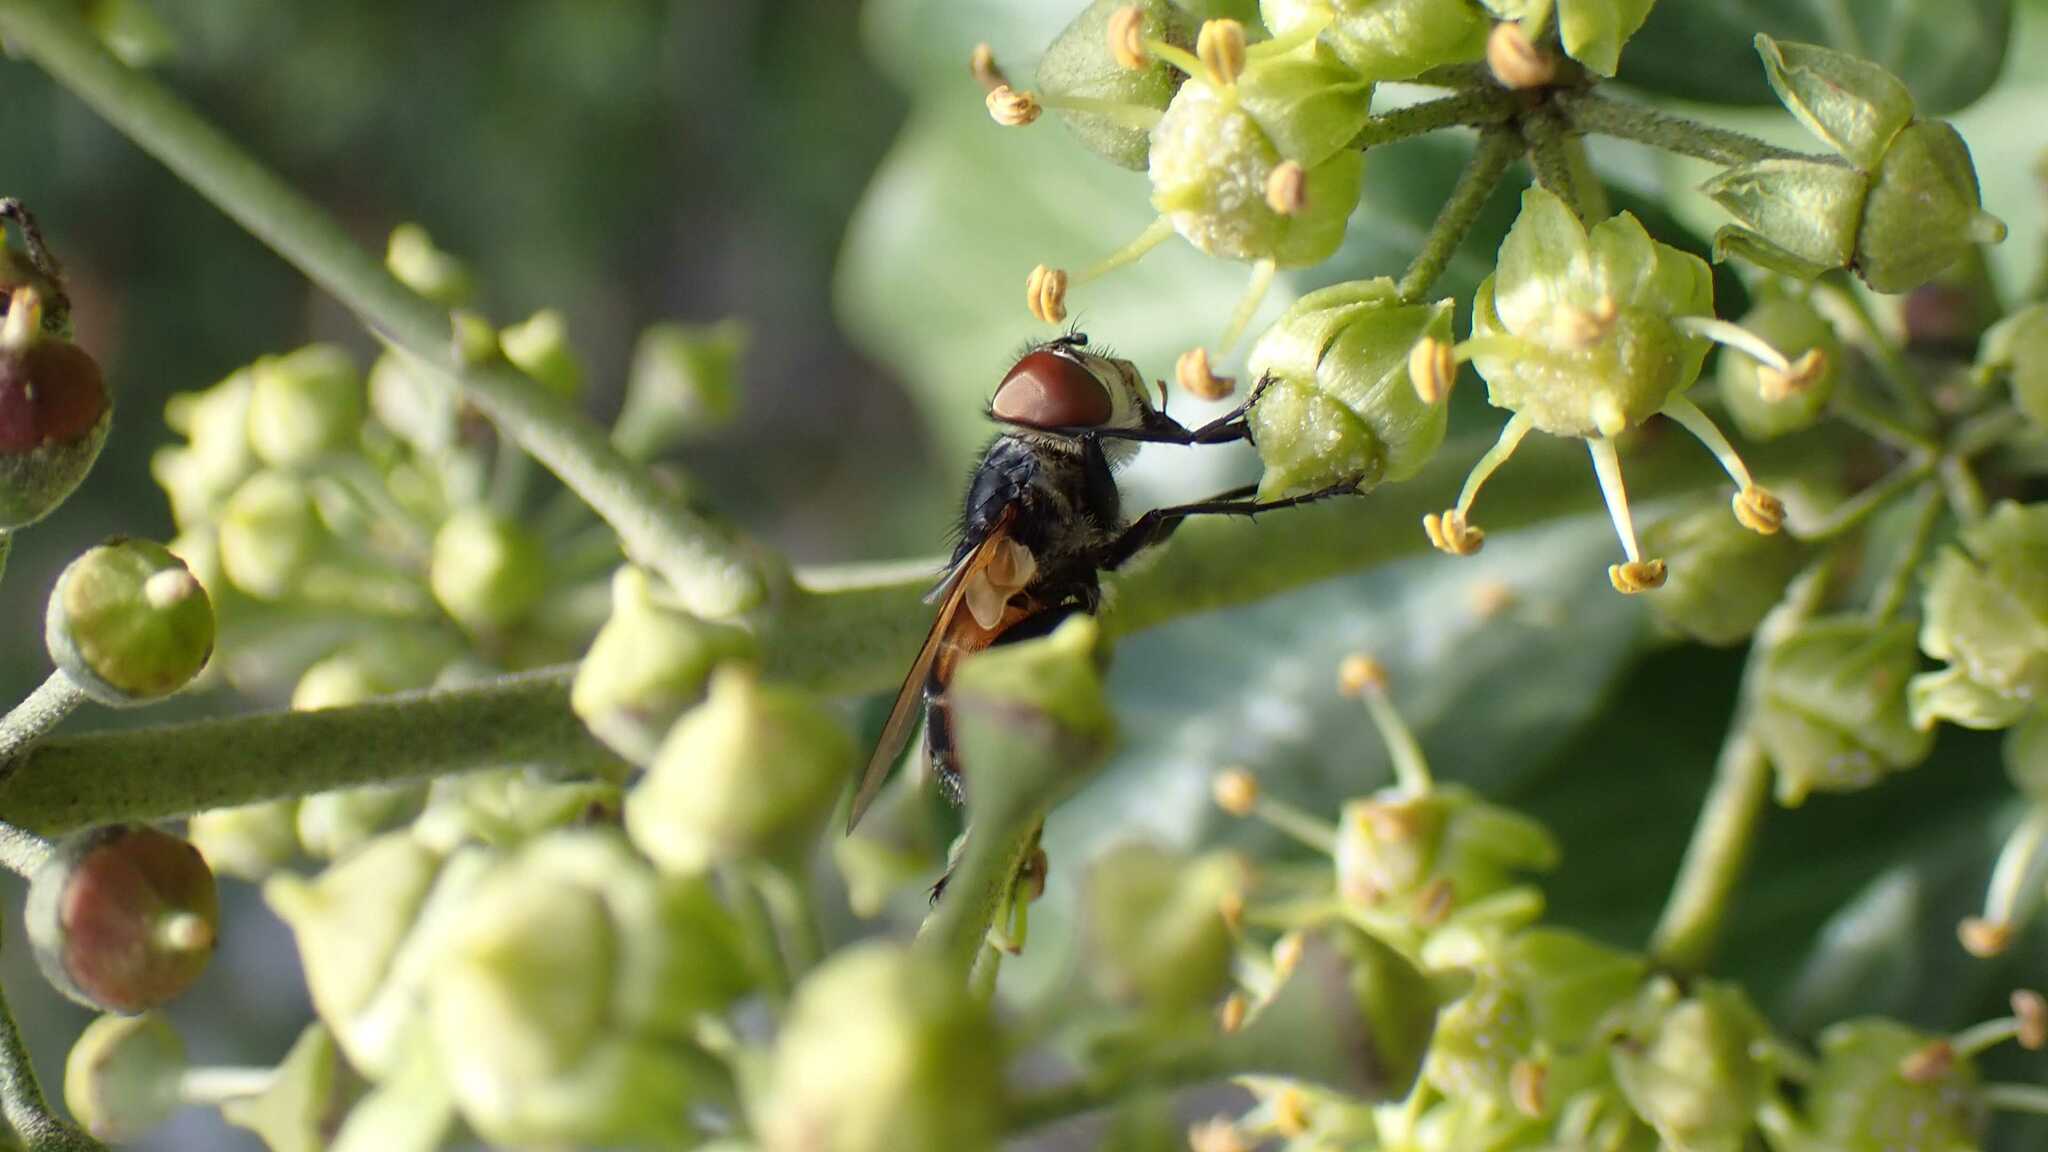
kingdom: Animalia
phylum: Arthropoda
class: Insecta
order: Diptera
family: Tachinidae
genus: Phasia
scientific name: Phasia aurigera
